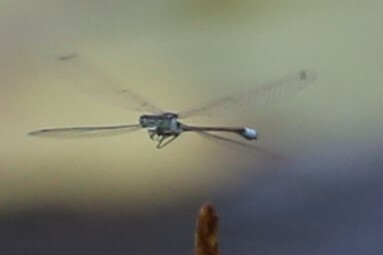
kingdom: Animalia
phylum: Arthropoda
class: Insecta
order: Odonata
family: Coenagrionidae
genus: Ischnura
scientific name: Ischnura heterosticta
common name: Common bluetail
